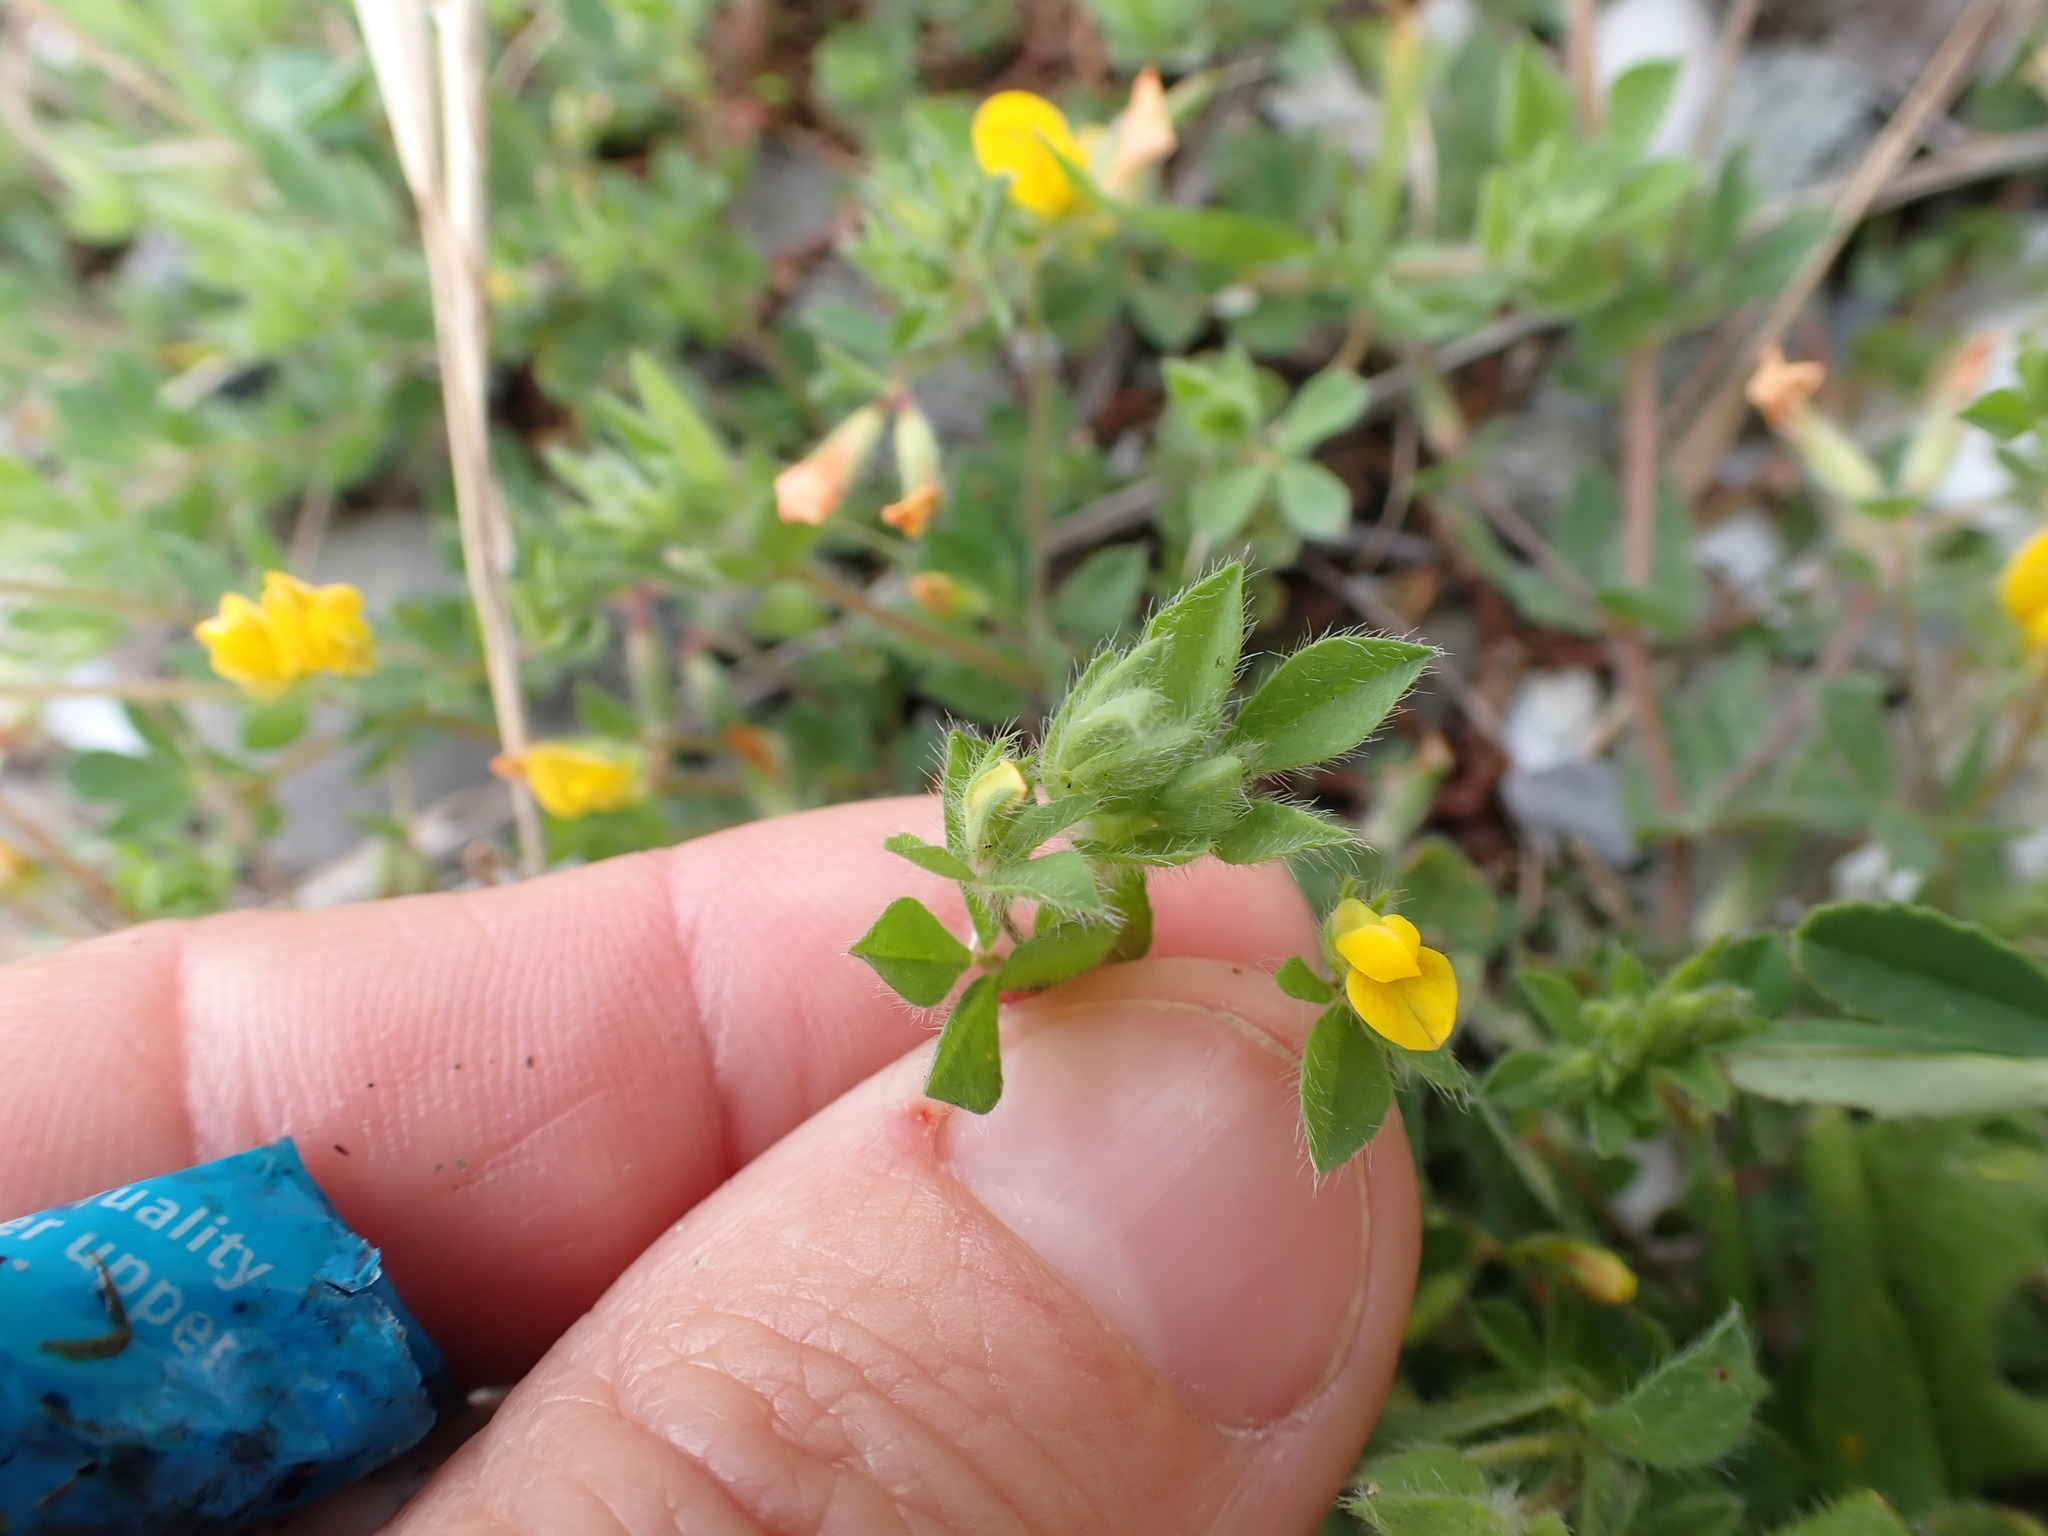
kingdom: Plantae
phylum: Tracheophyta
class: Magnoliopsida
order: Fabales
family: Fabaceae
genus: Lotus
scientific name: Lotus subbiflorus
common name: Hairy bird's-foot trefoil
